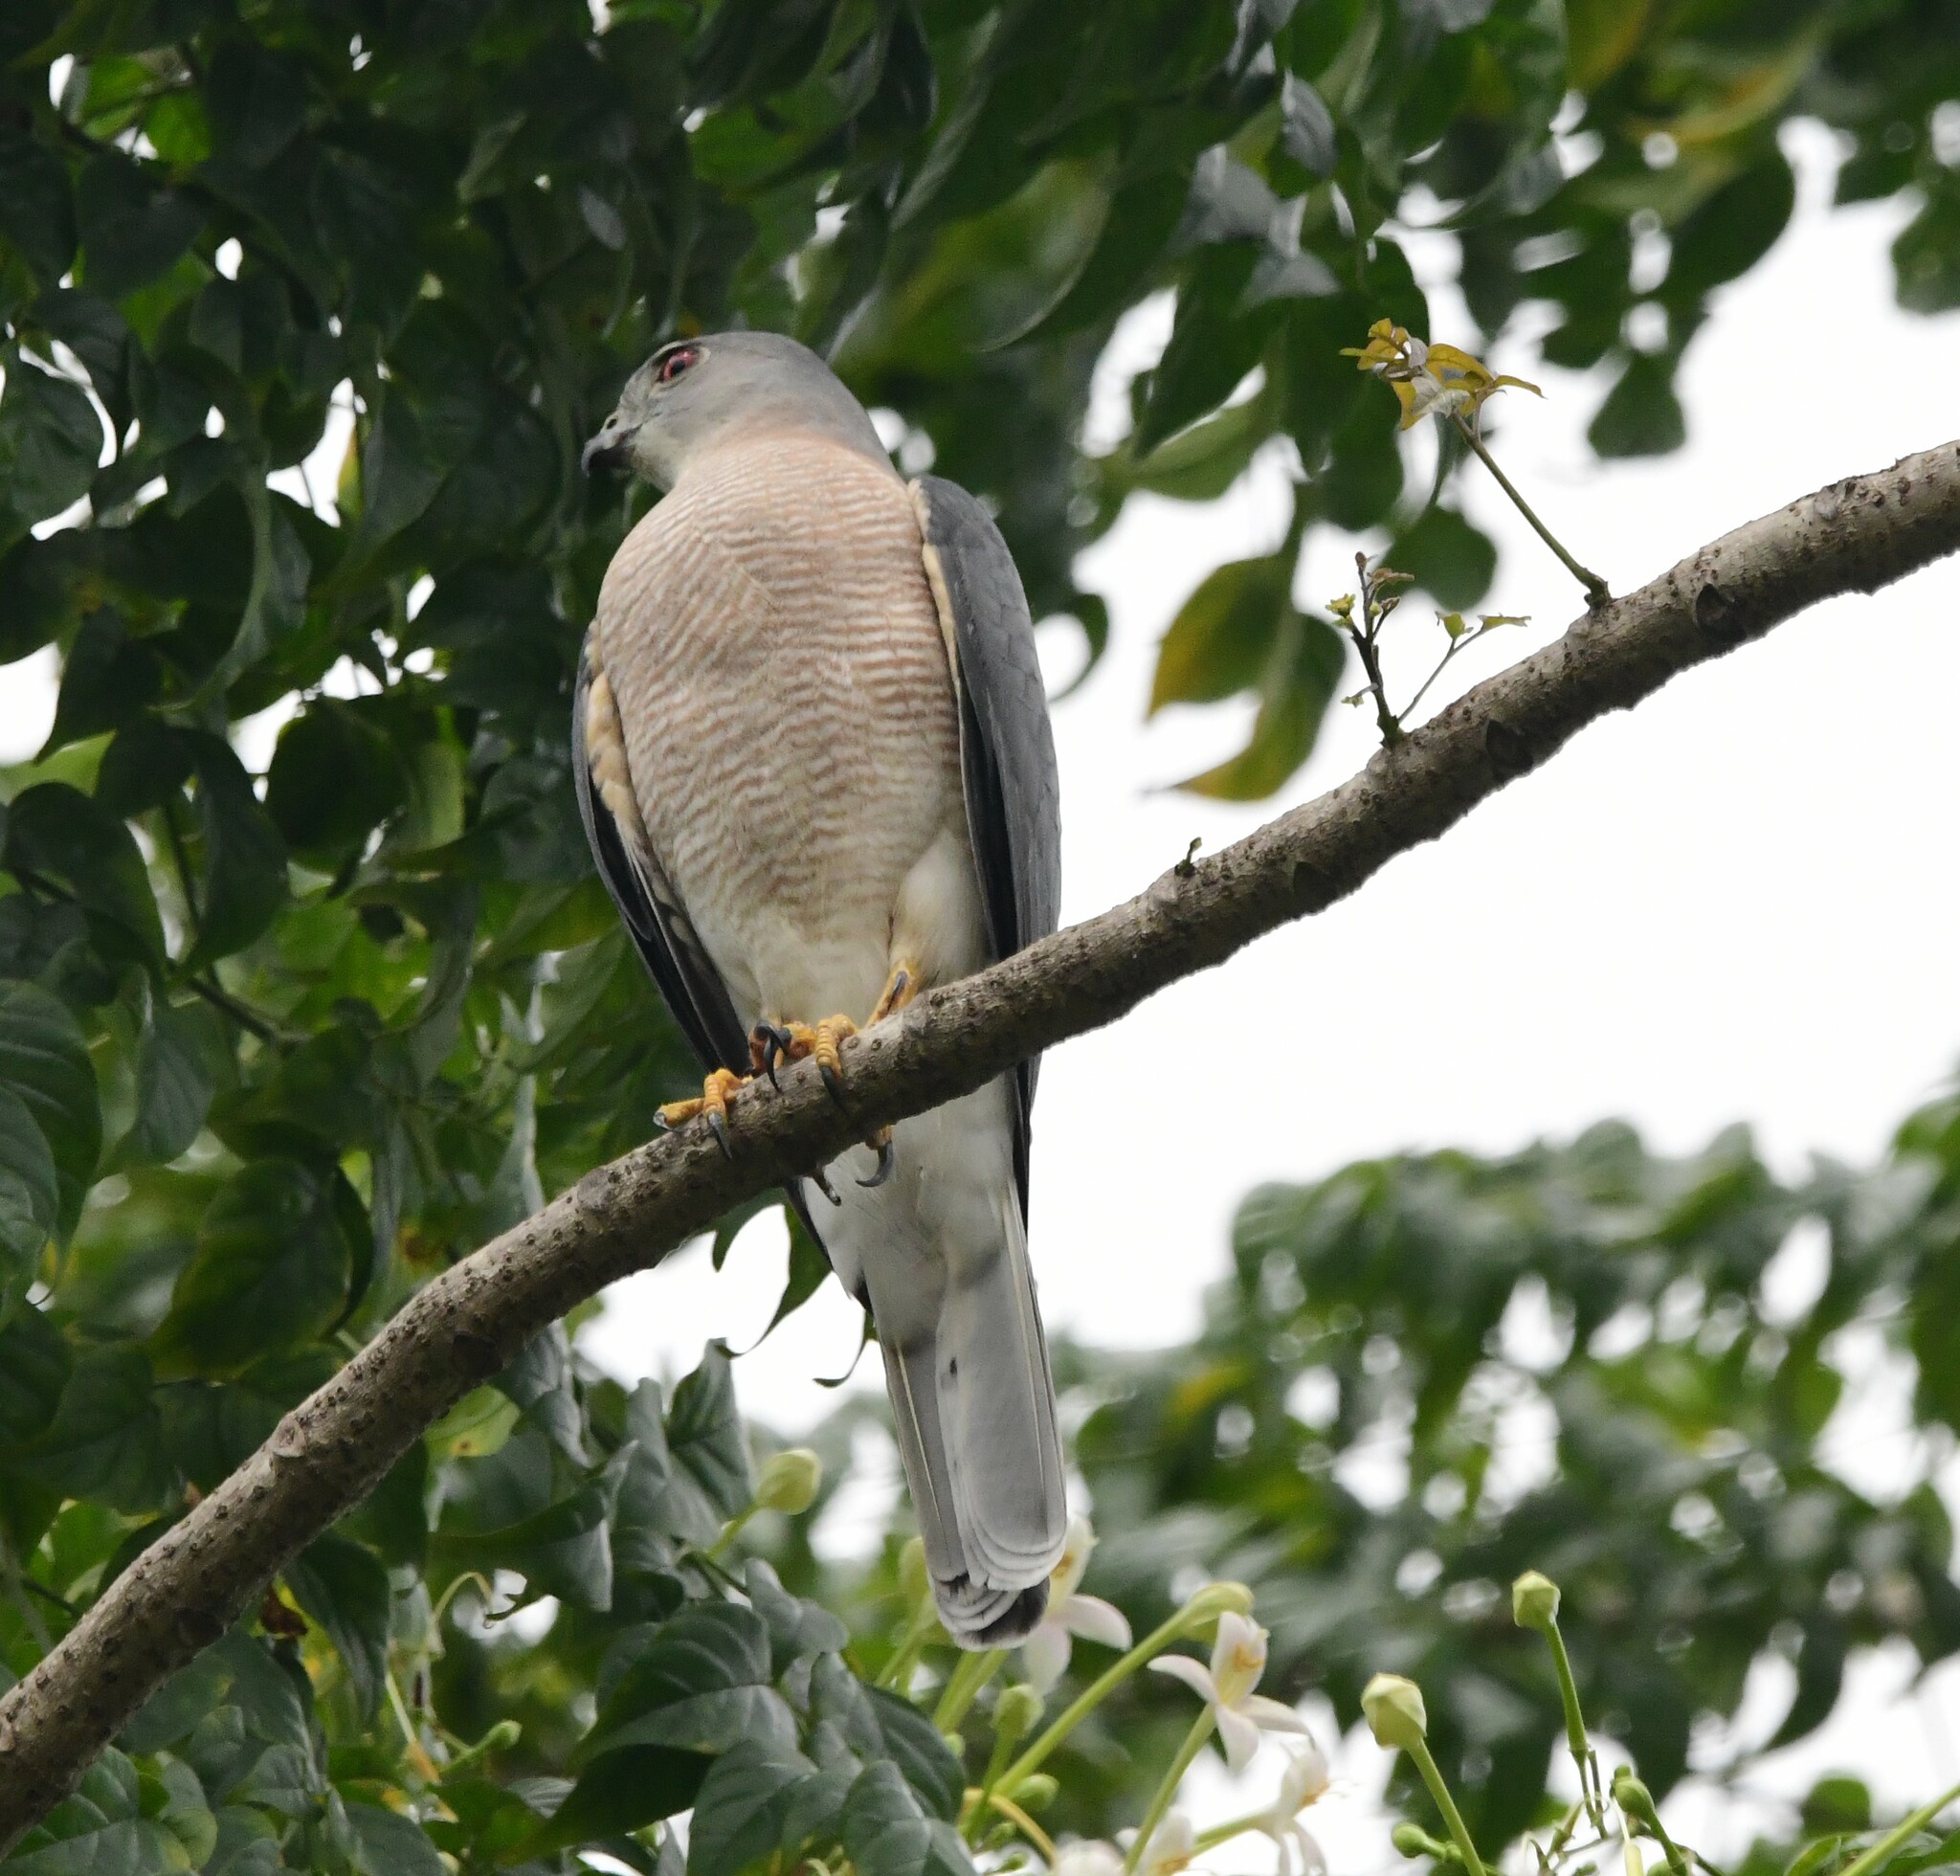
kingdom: Animalia
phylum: Chordata
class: Aves
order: Accipitriformes
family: Accipitridae
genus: Accipiter
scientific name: Accipiter badius
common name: Shikra
